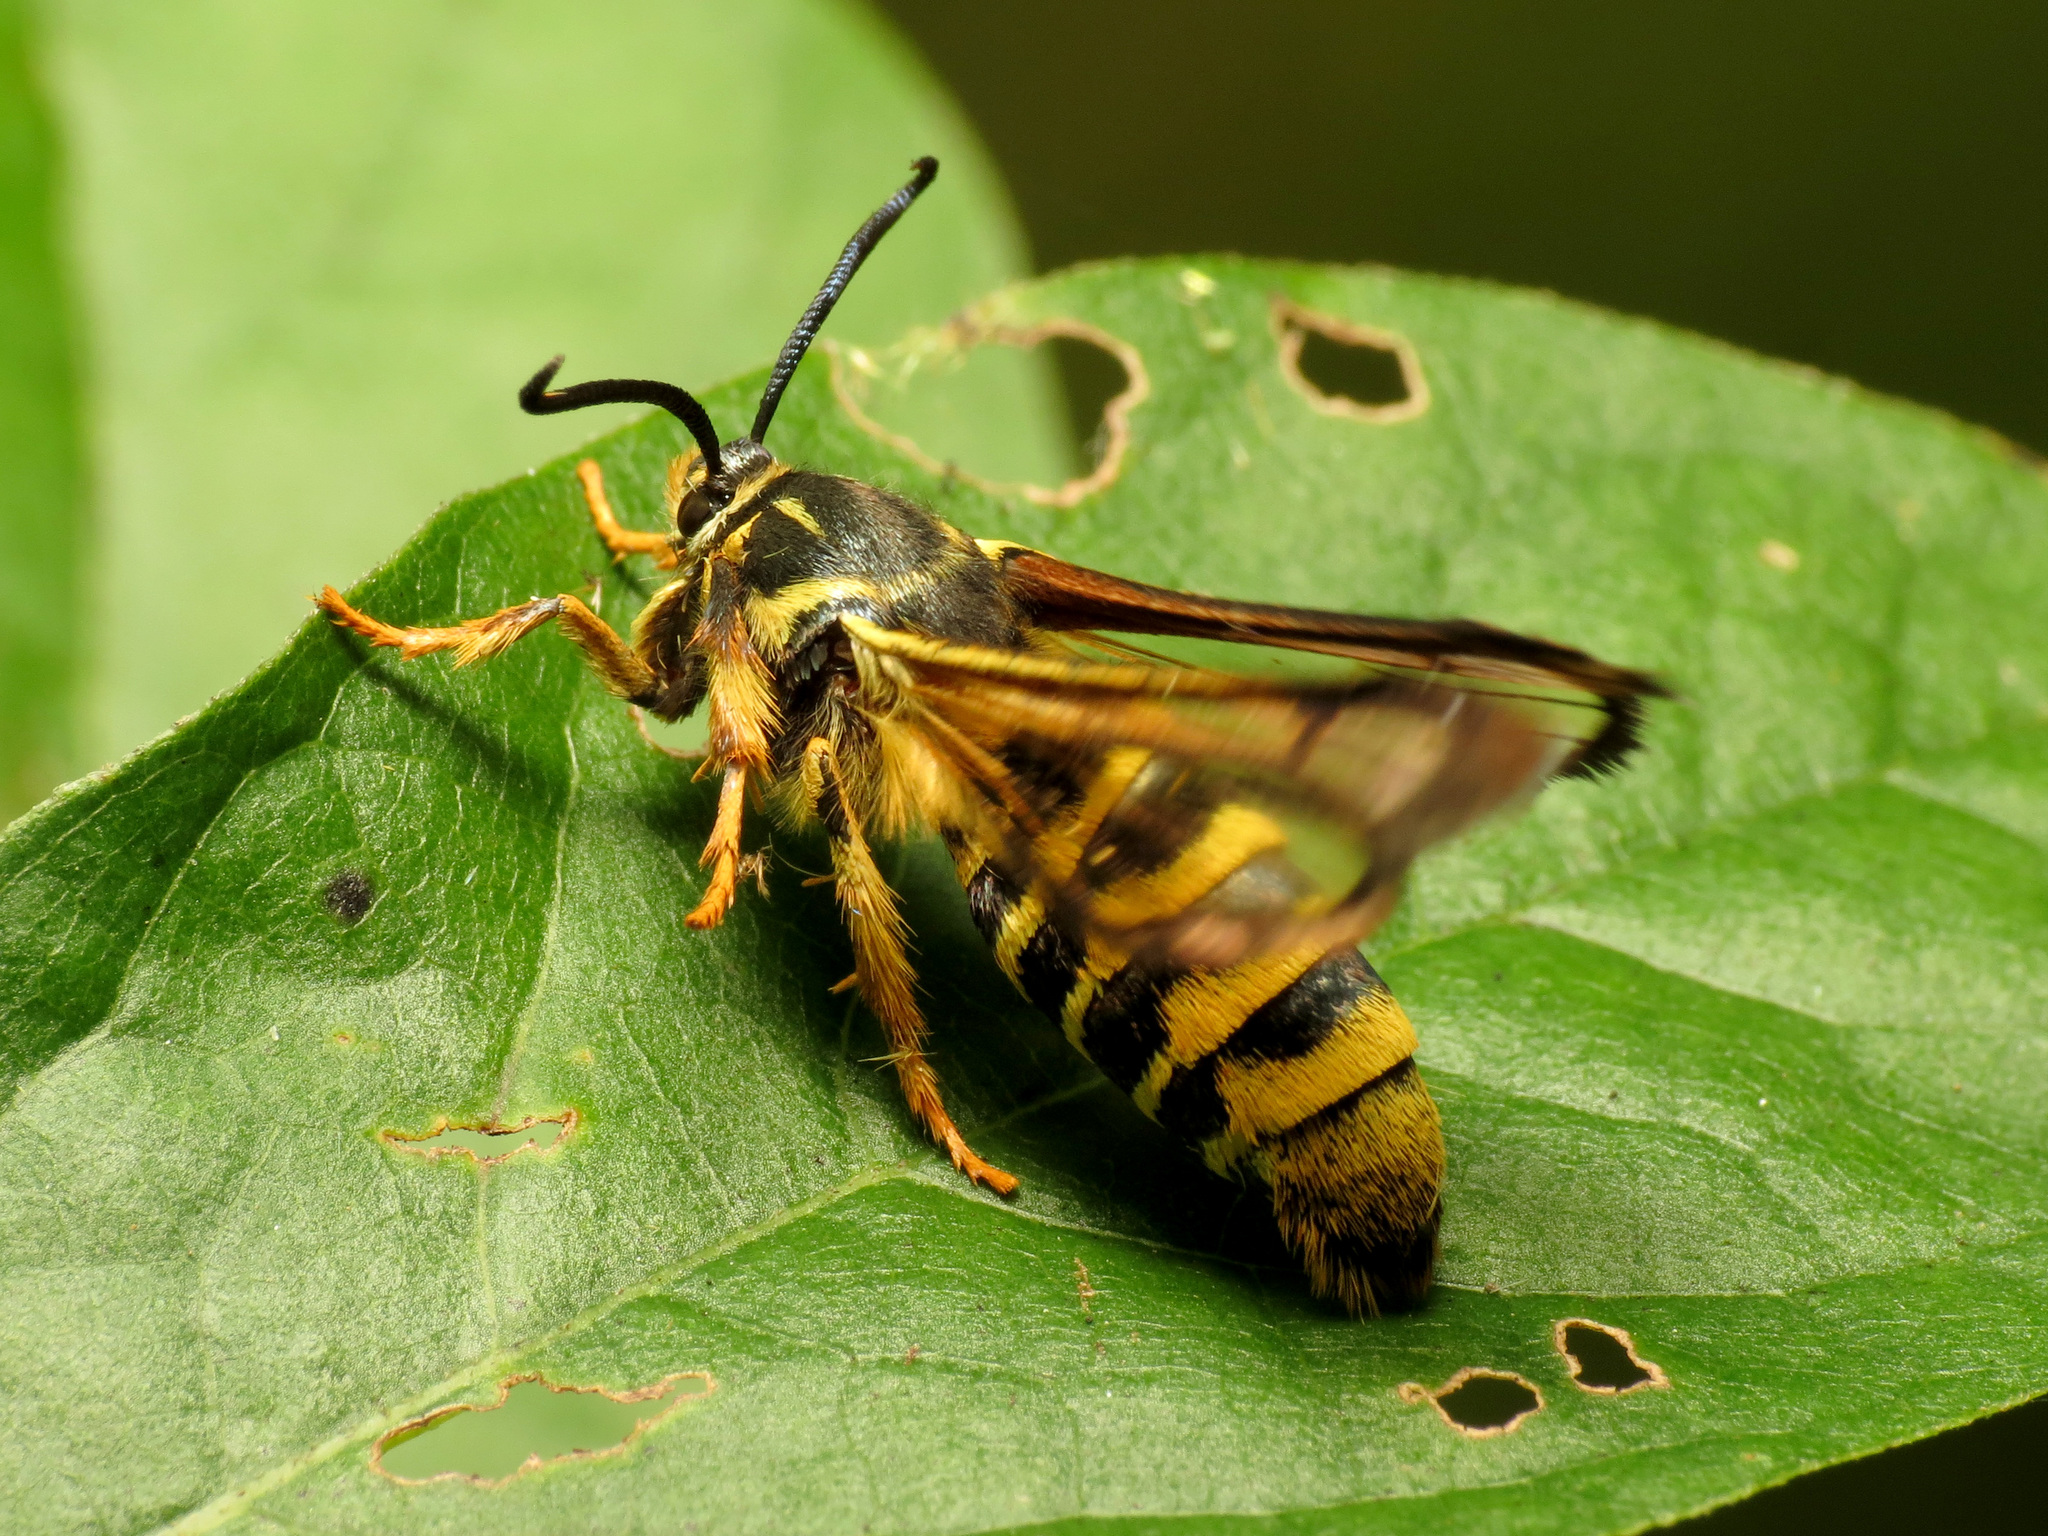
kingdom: Animalia
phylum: Arthropoda
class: Insecta
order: Lepidoptera
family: Sesiidae
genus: Pennisetia
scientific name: Pennisetia marginatum
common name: Raspberry crown borer
